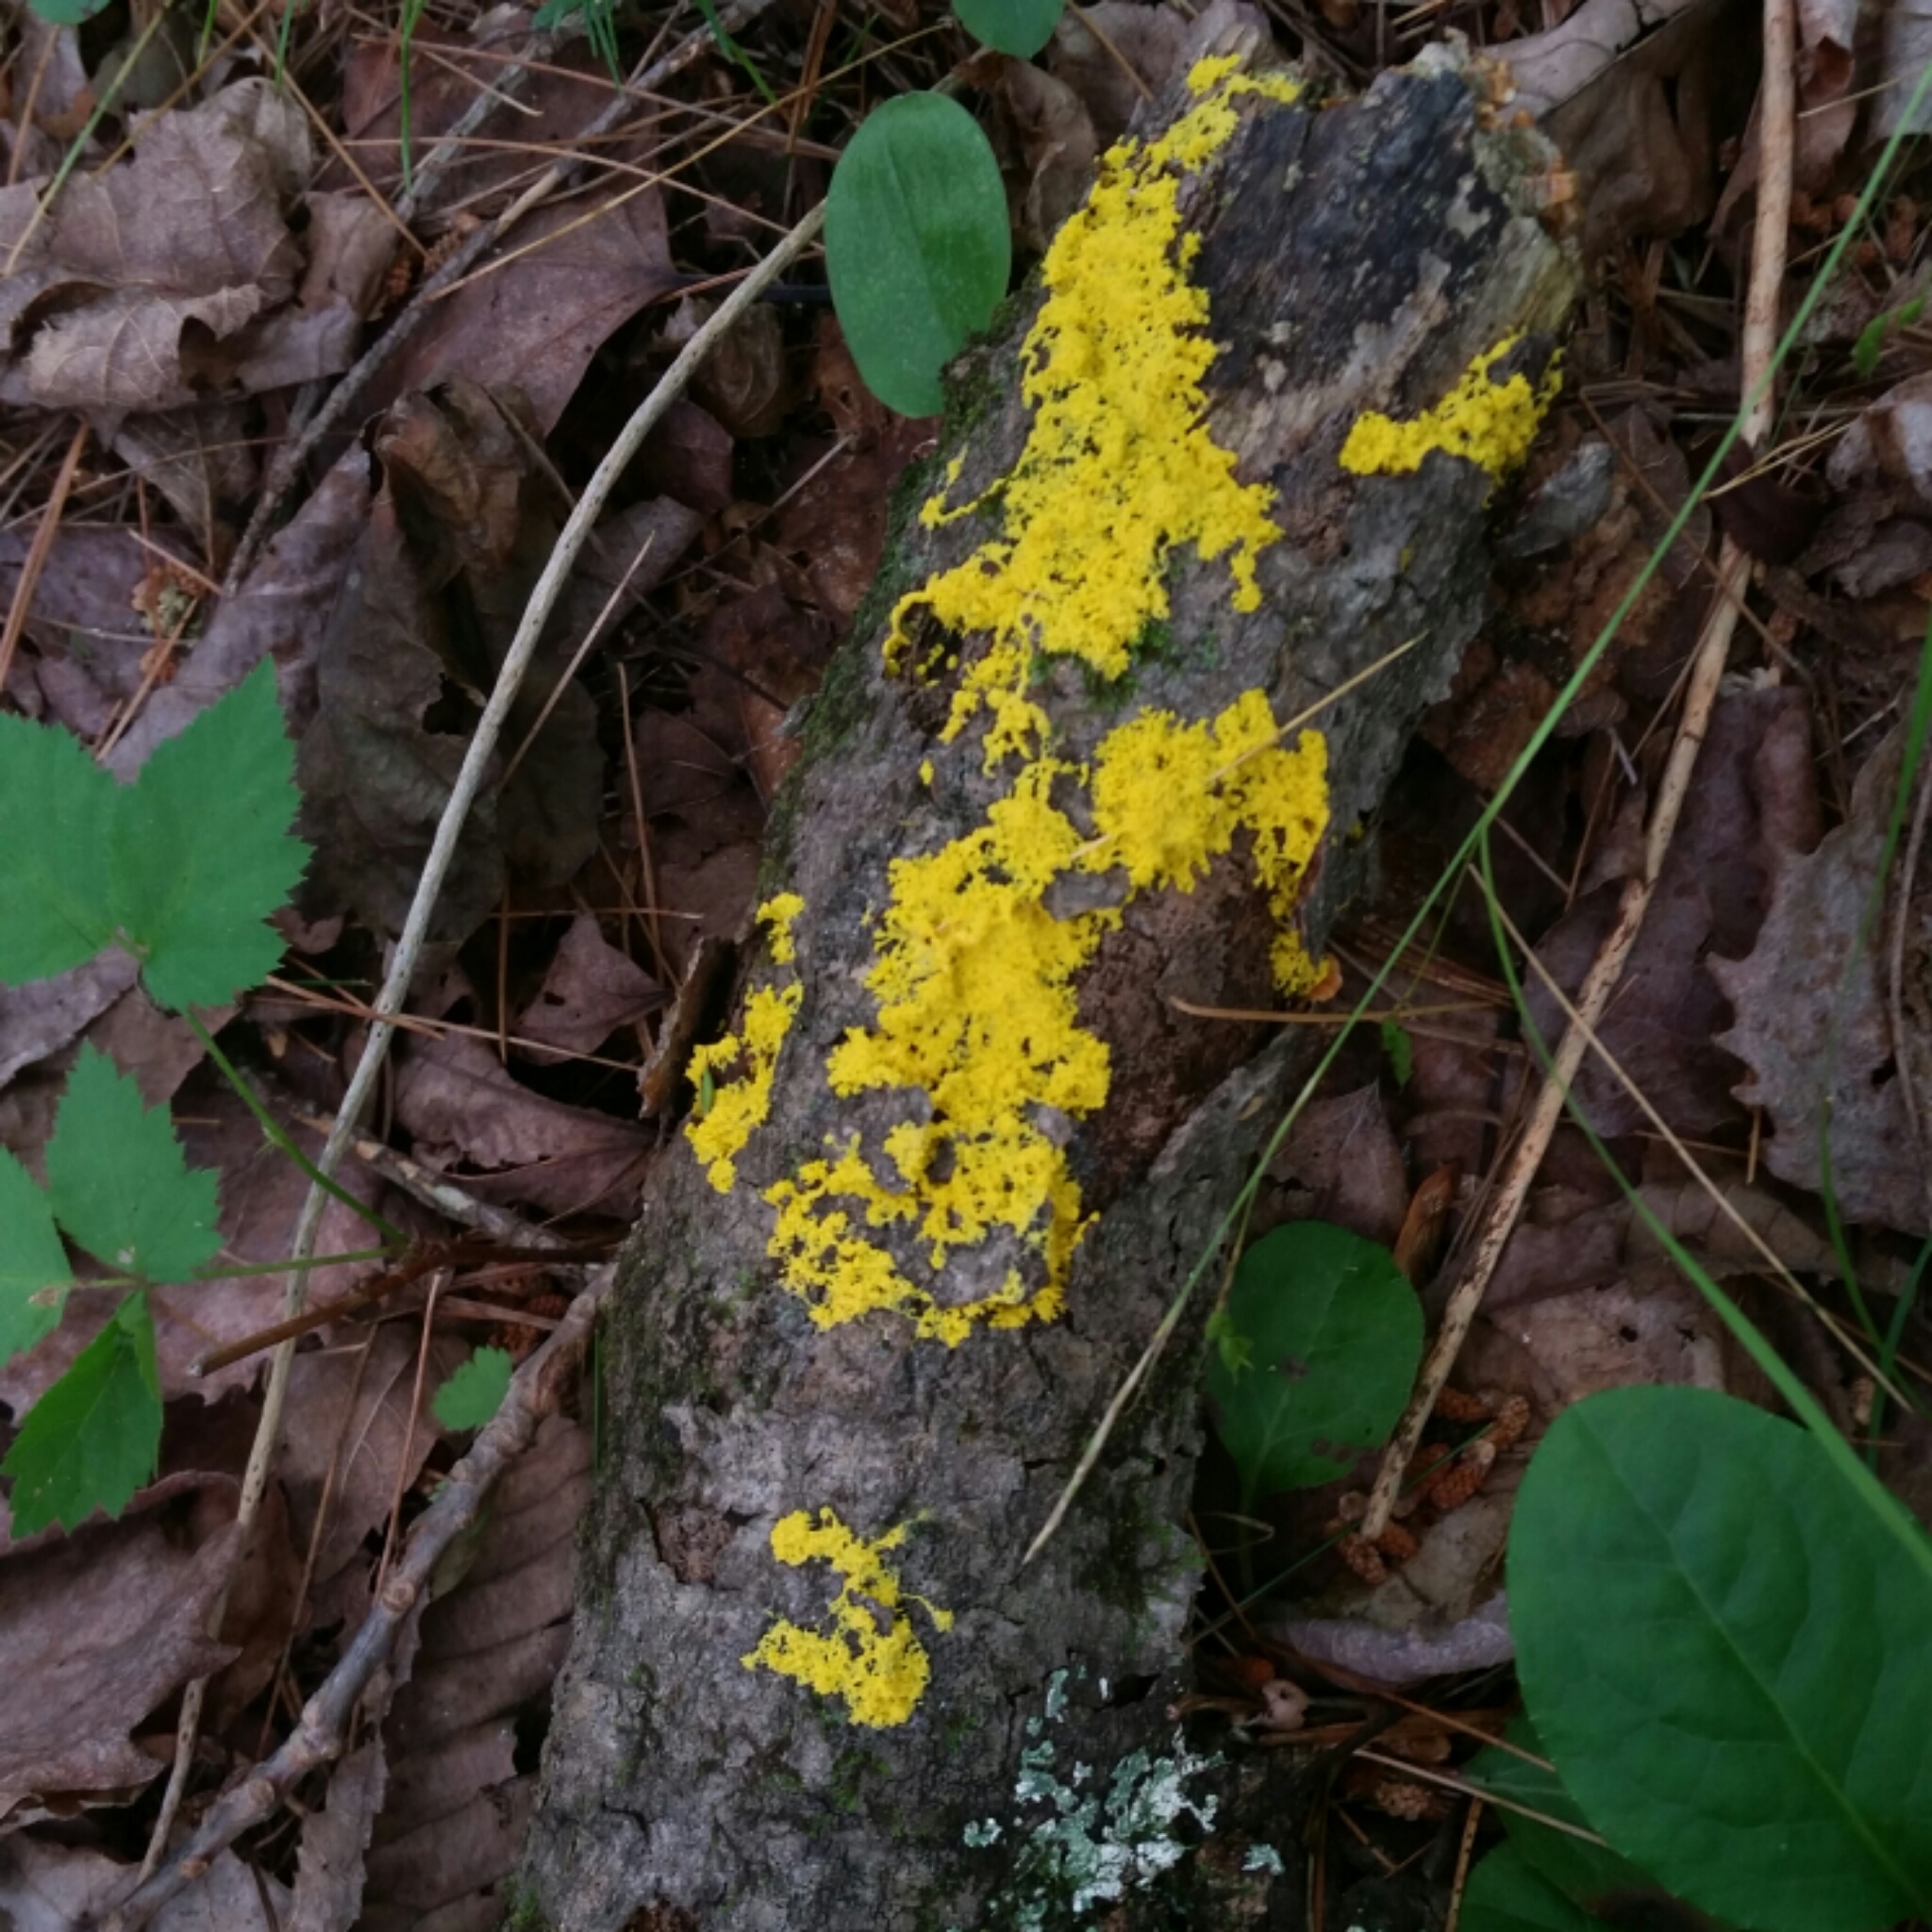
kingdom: Protozoa
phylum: Mycetozoa
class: Myxomycetes
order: Physarales
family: Physaraceae
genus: Fuligo
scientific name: Fuligo septica
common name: Dog vomit slime mold
